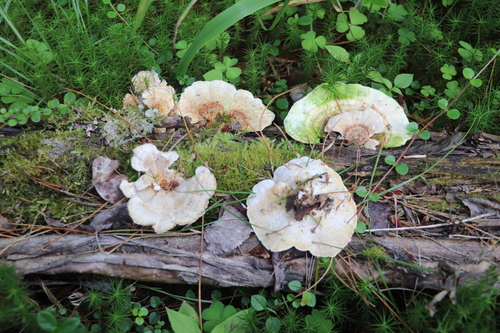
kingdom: Fungi
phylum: Basidiomycota
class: Agaricomycetes
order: Polyporales
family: Polyporaceae
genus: Trametes
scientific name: Trametes ochracea
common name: Ochre bracket
